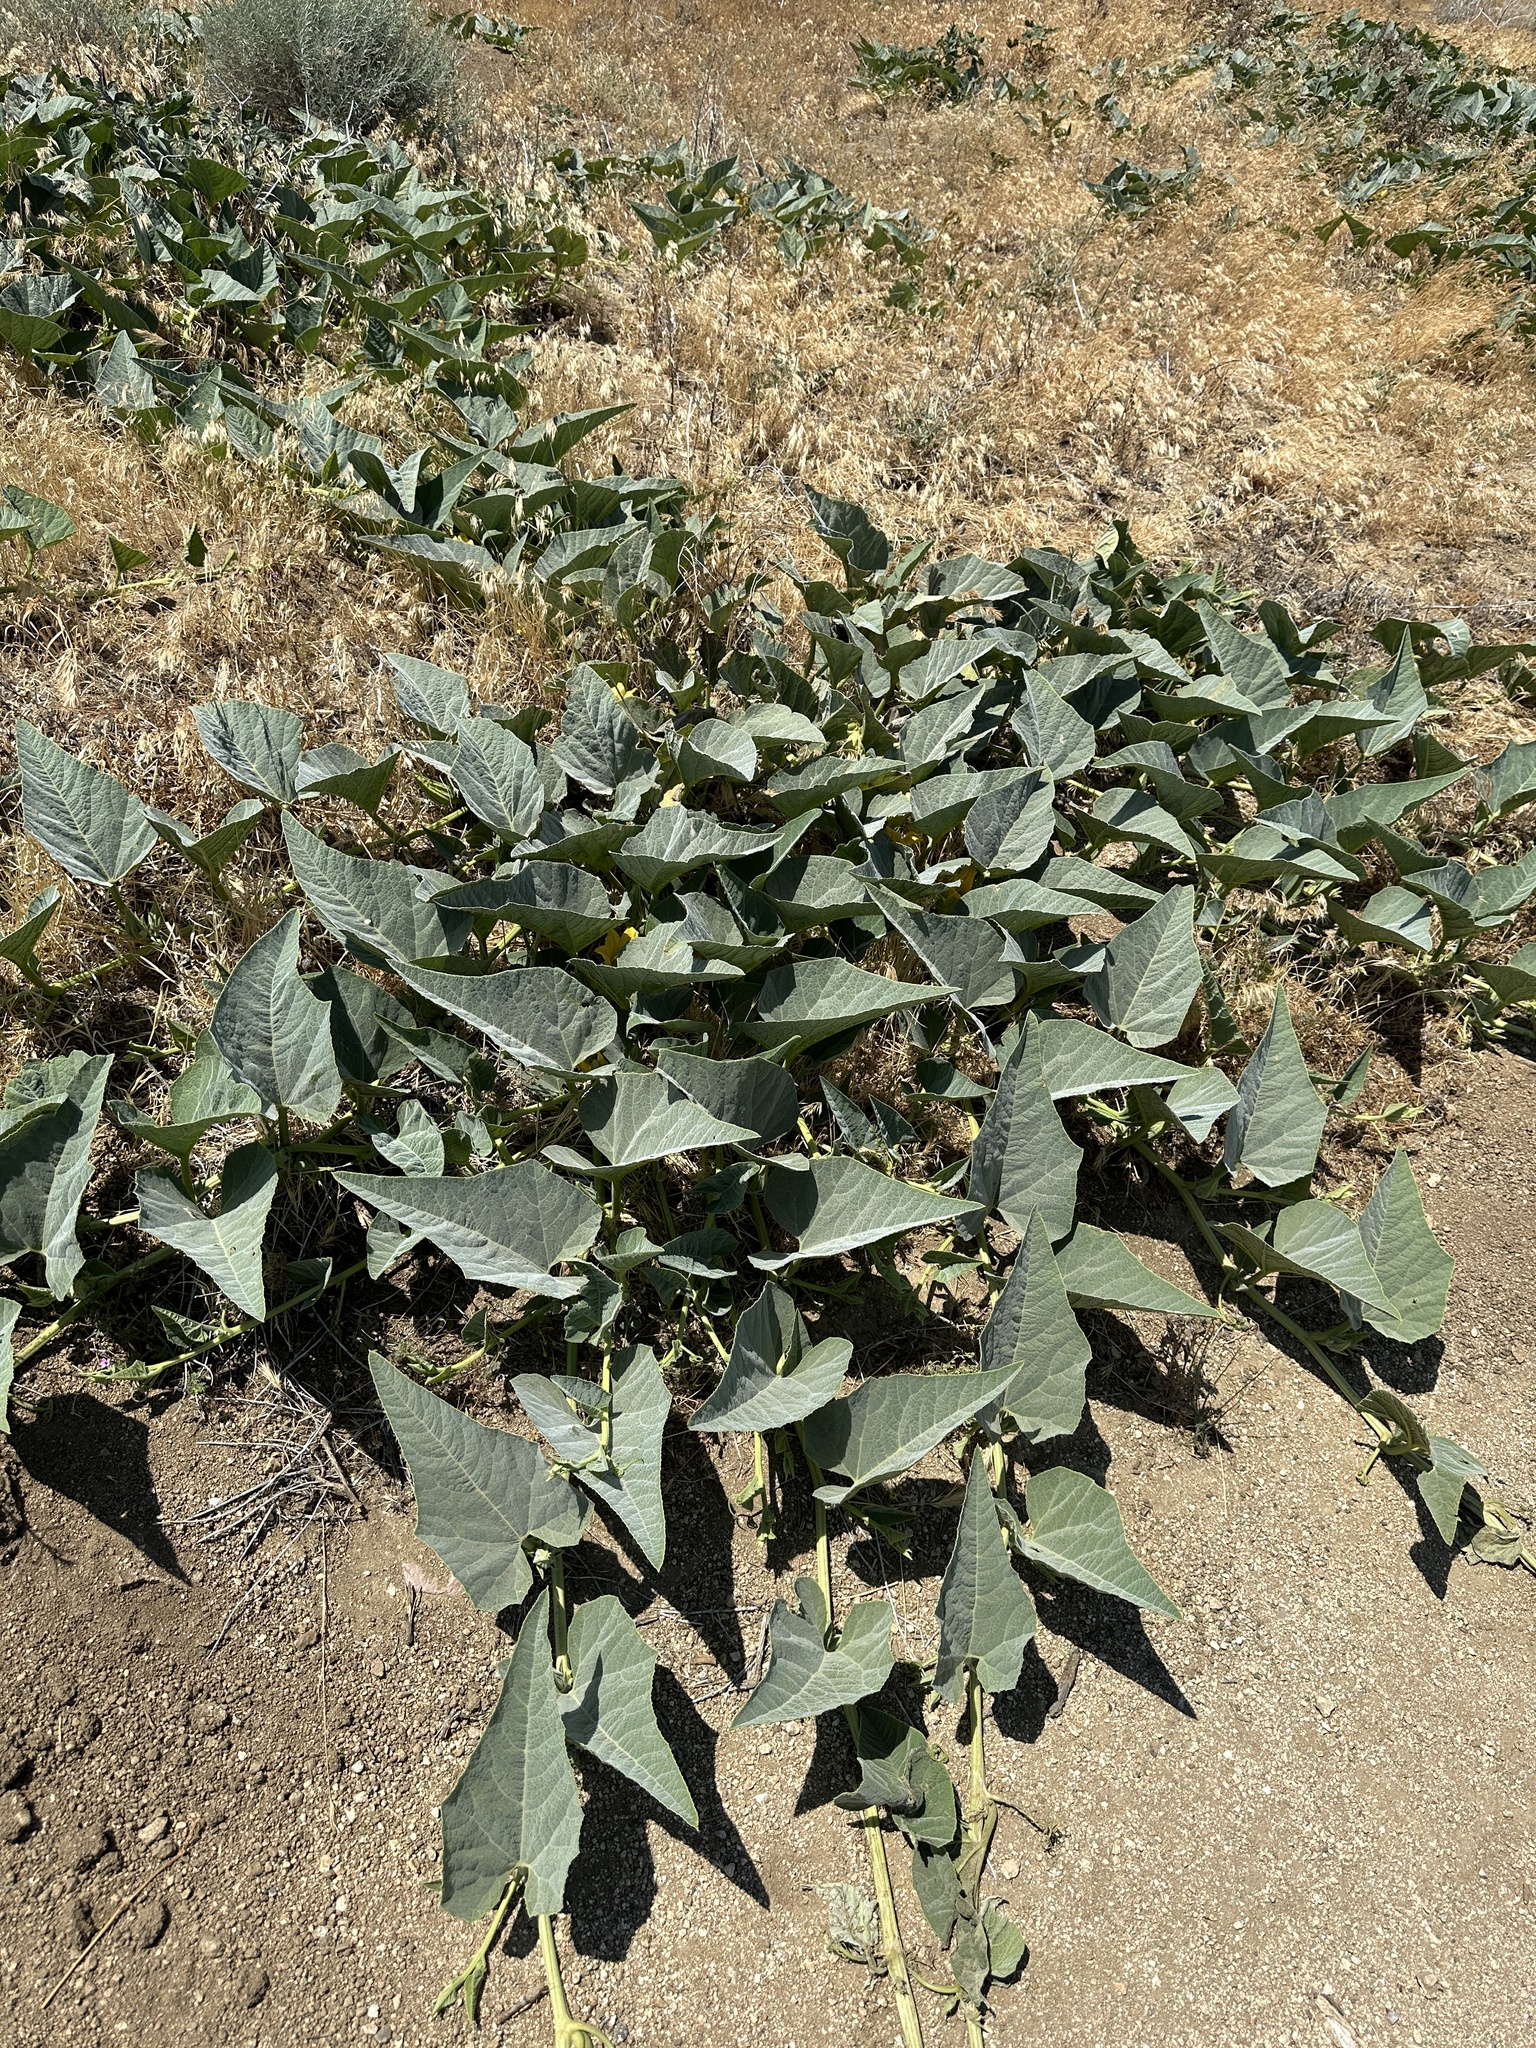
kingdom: Plantae
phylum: Tracheophyta
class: Magnoliopsida
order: Cucurbitales
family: Cucurbitaceae
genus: Cucurbita
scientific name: Cucurbita foetidissima
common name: Buffalo gourd
